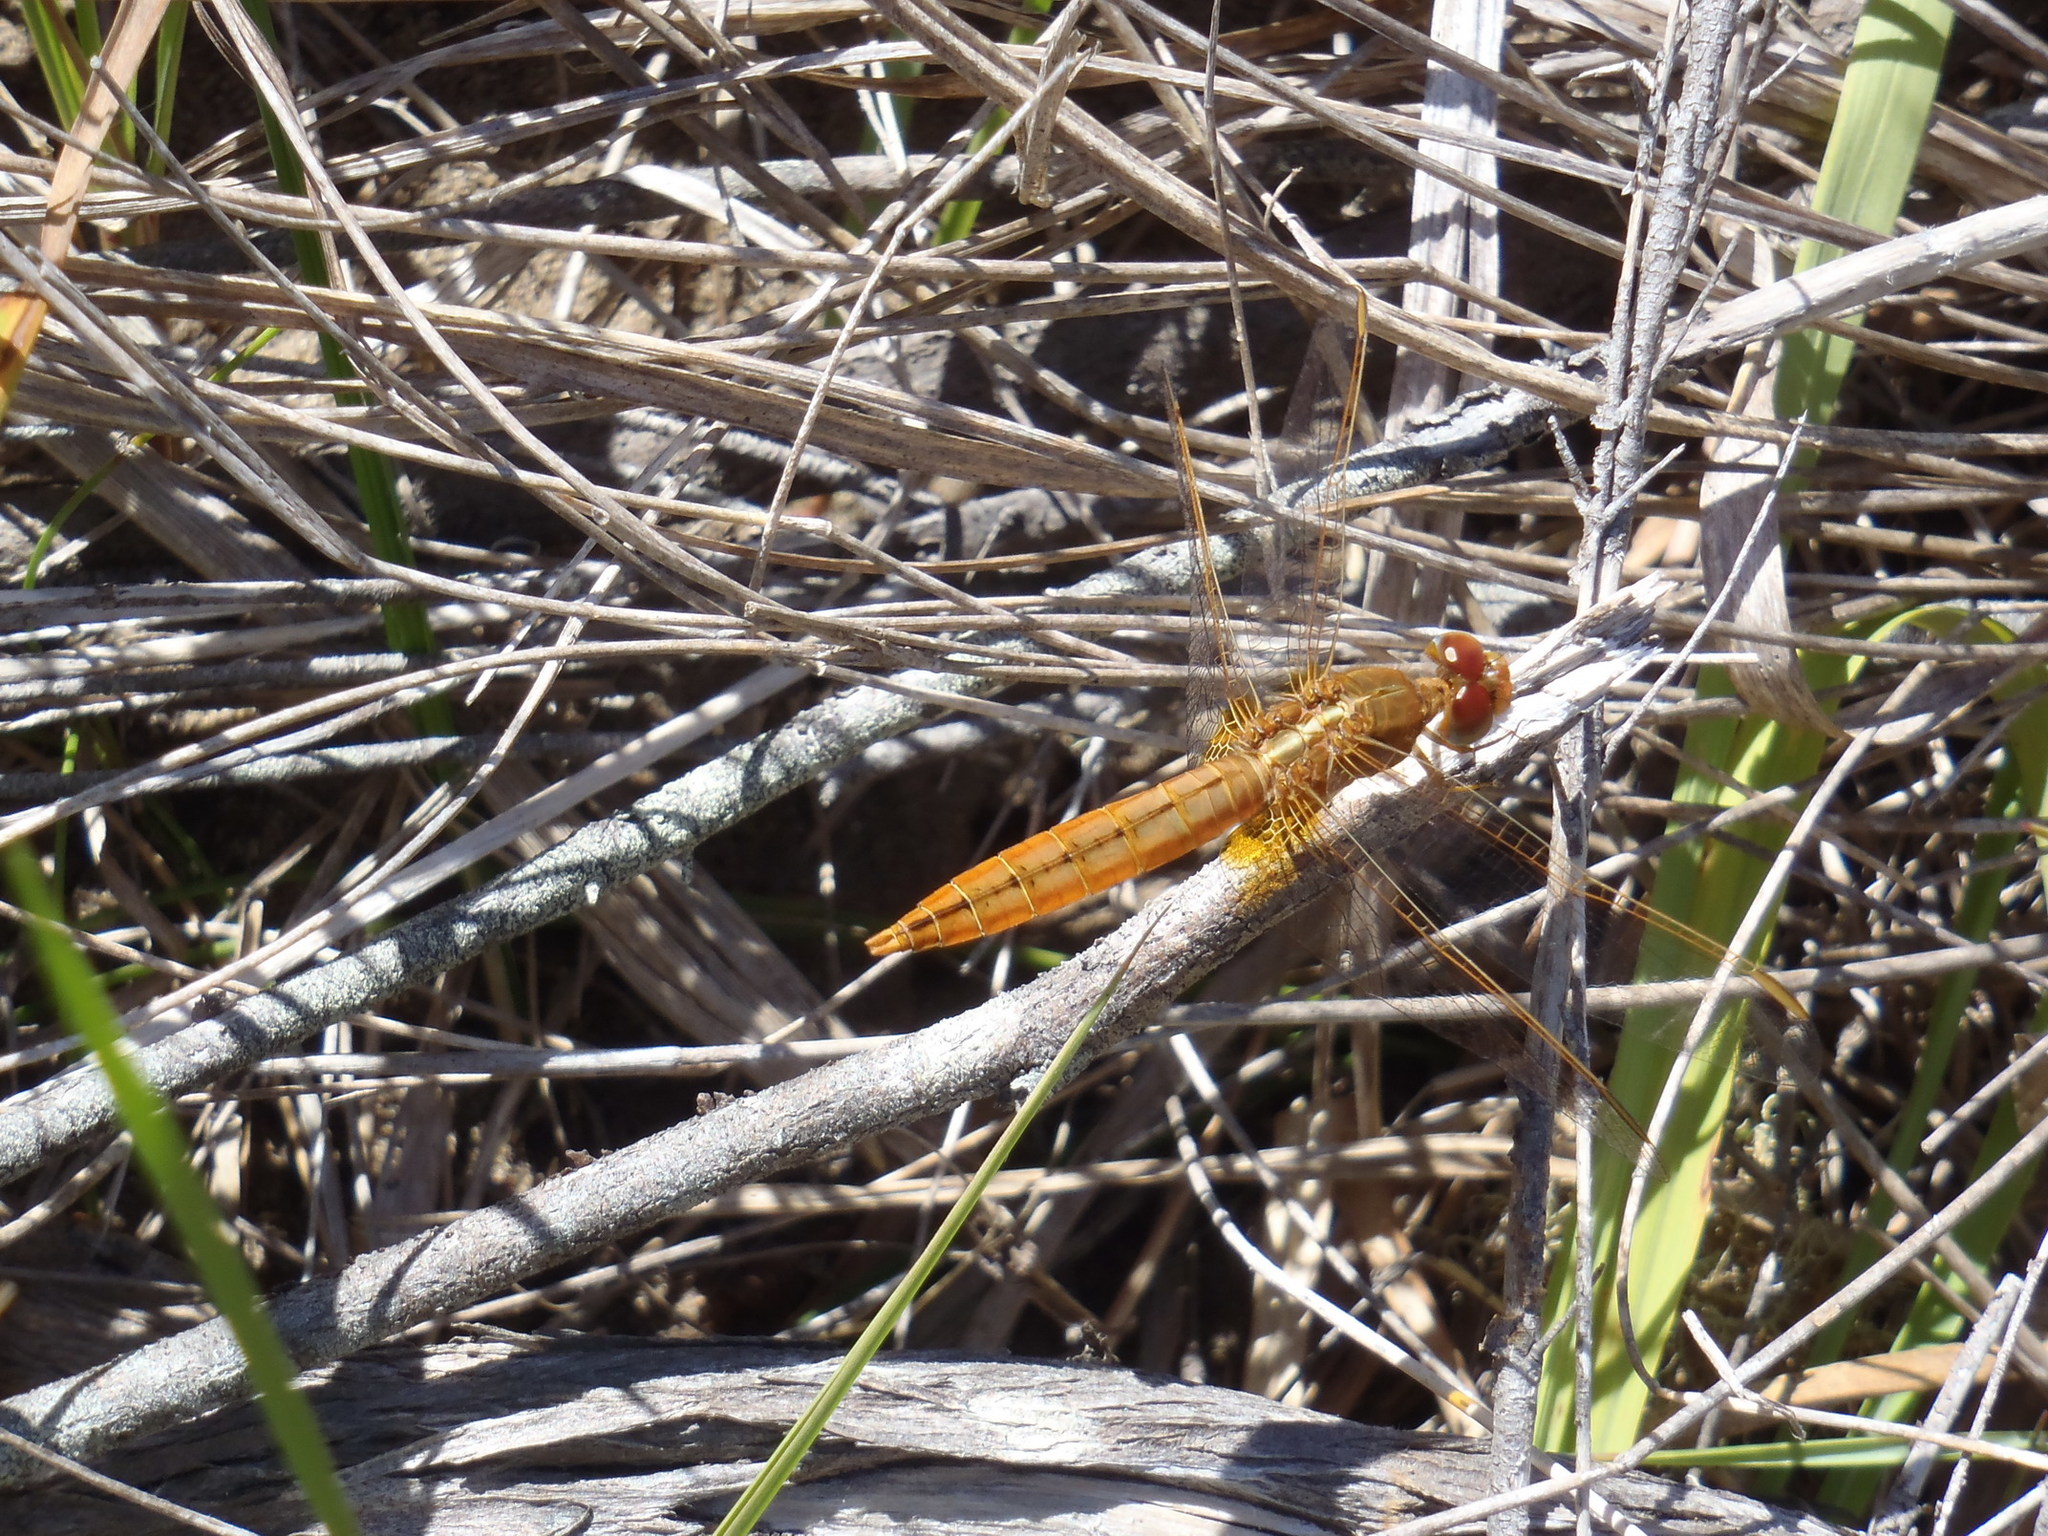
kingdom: Animalia
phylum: Arthropoda
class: Insecta
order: Odonata
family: Libellulidae
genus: Crocothemis
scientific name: Crocothemis erythraea
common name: Scarlet dragonfly
